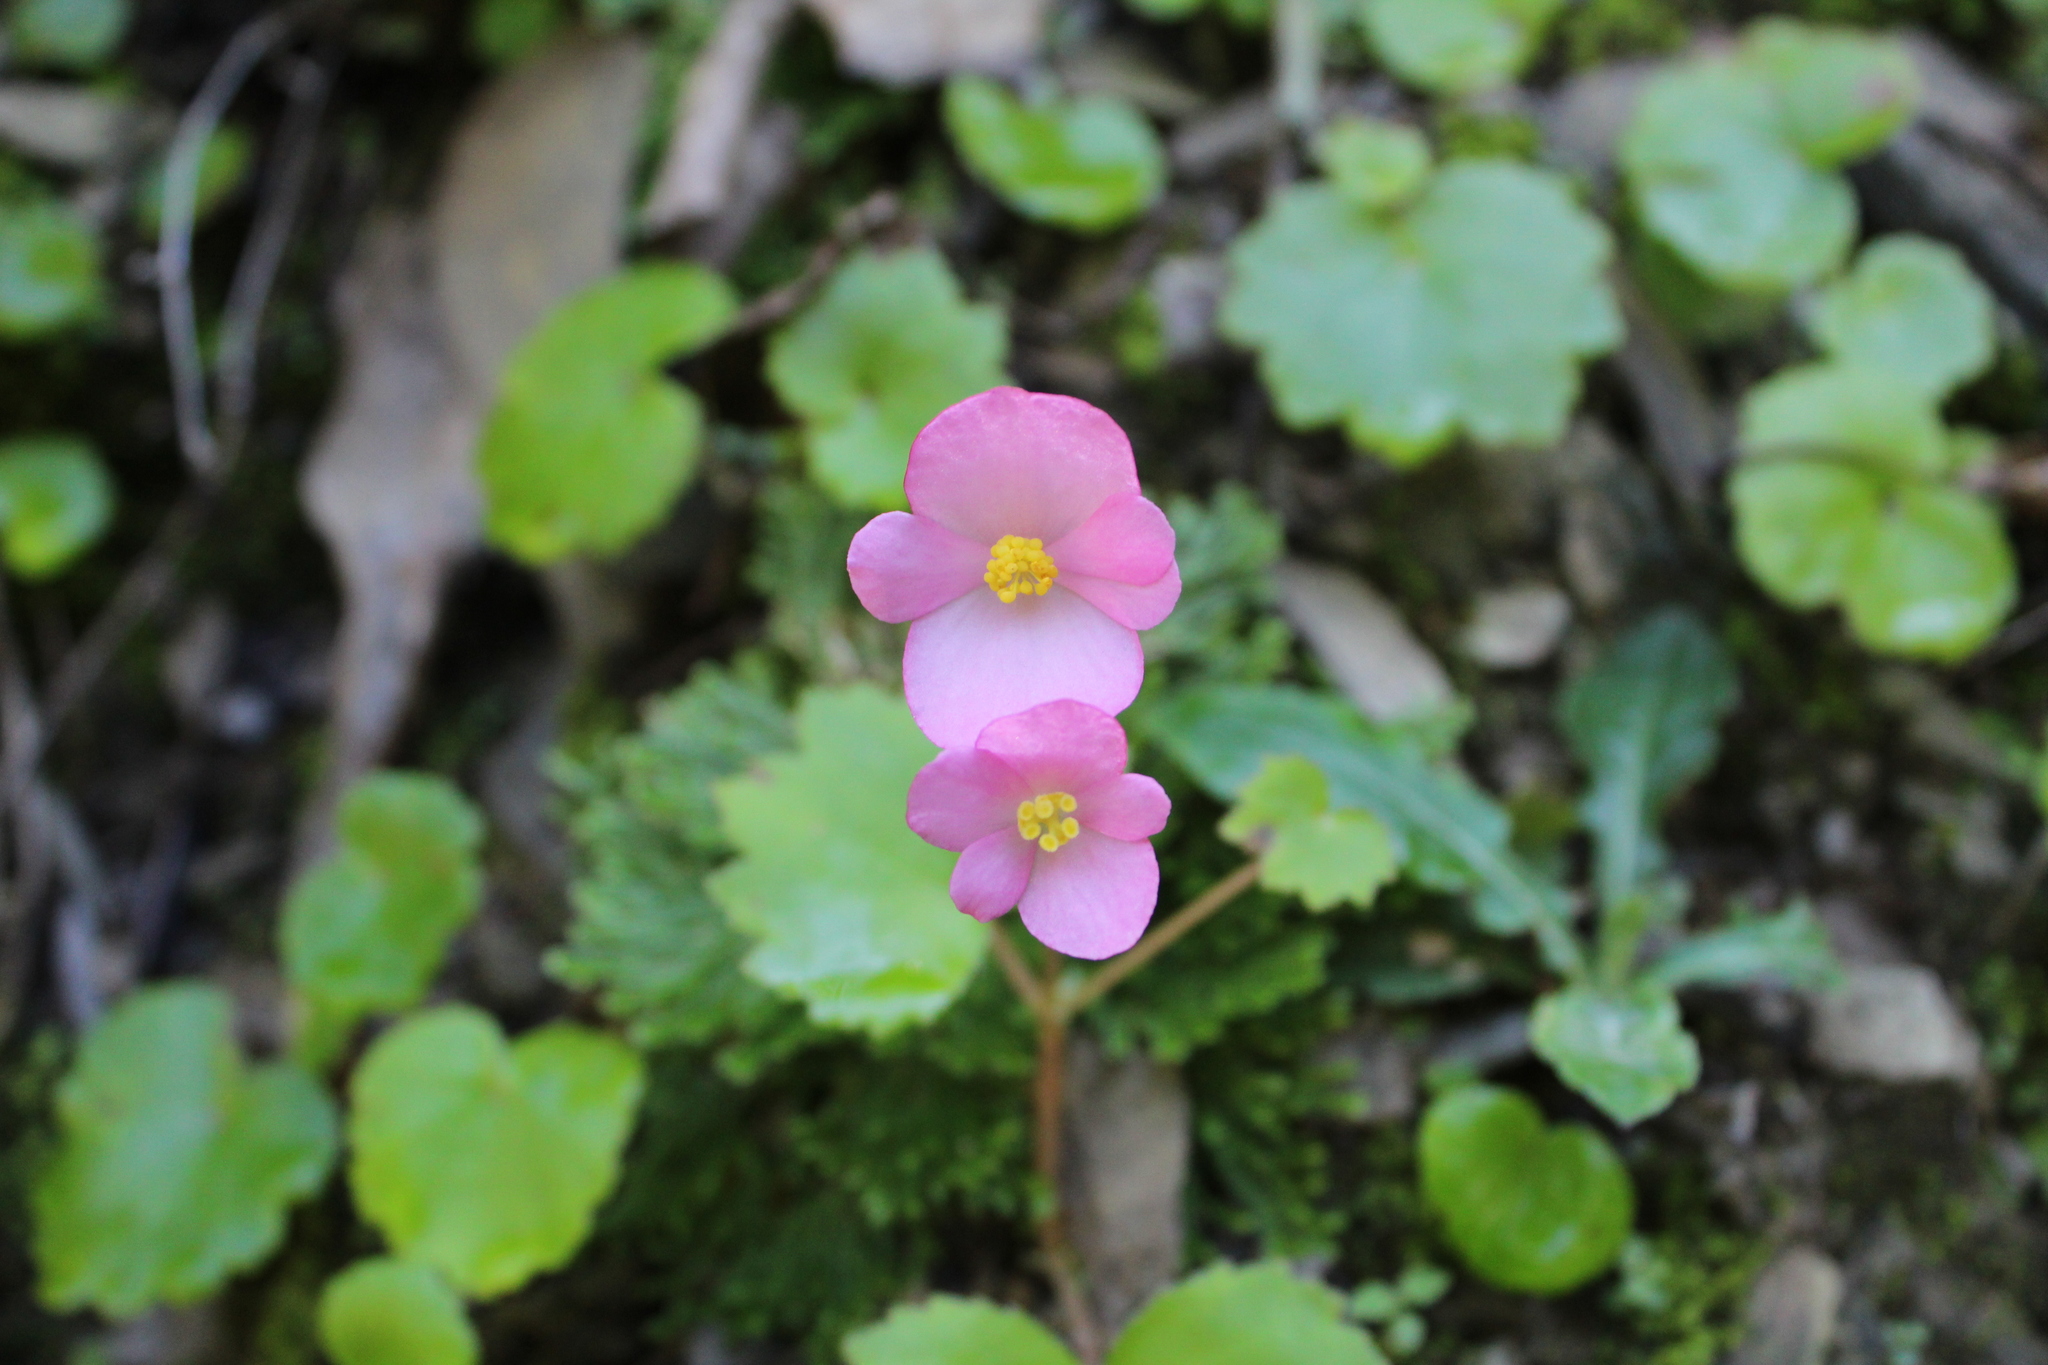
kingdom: Plantae
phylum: Tracheophyta
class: Magnoliopsida
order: Cucurbitales
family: Begoniaceae
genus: Begonia
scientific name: Begonia gracilis
